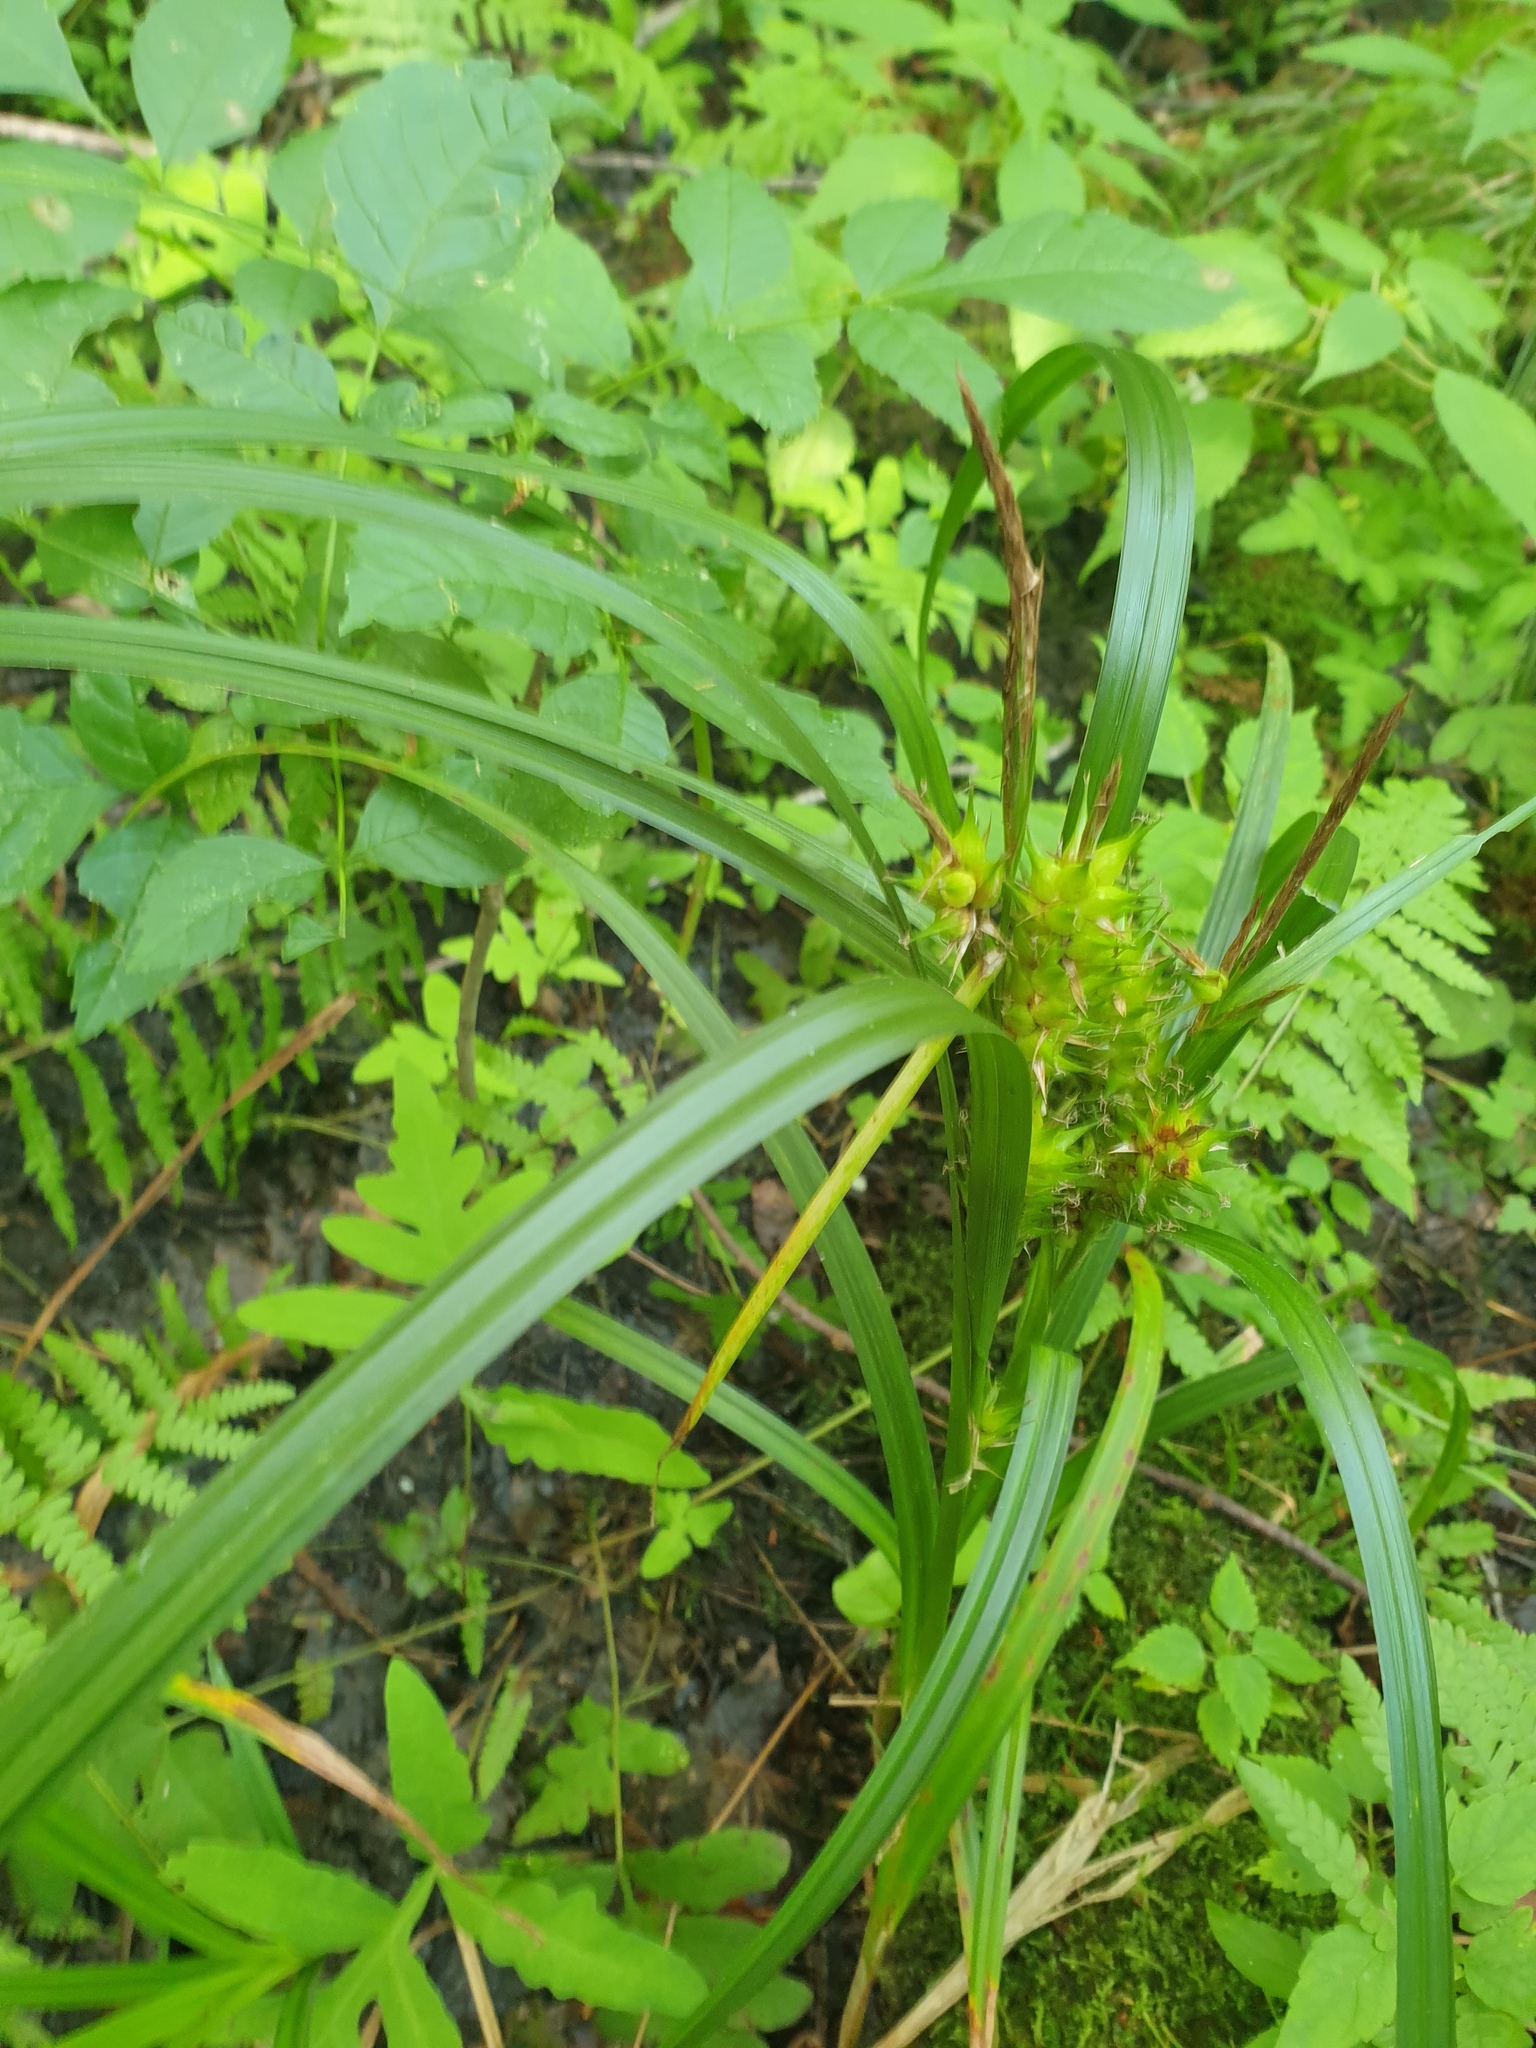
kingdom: Plantae
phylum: Tracheophyta
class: Liliopsida
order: Poales
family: Cyperaceae
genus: Carex
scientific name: Carex lupuliformis
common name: False hop sedge
